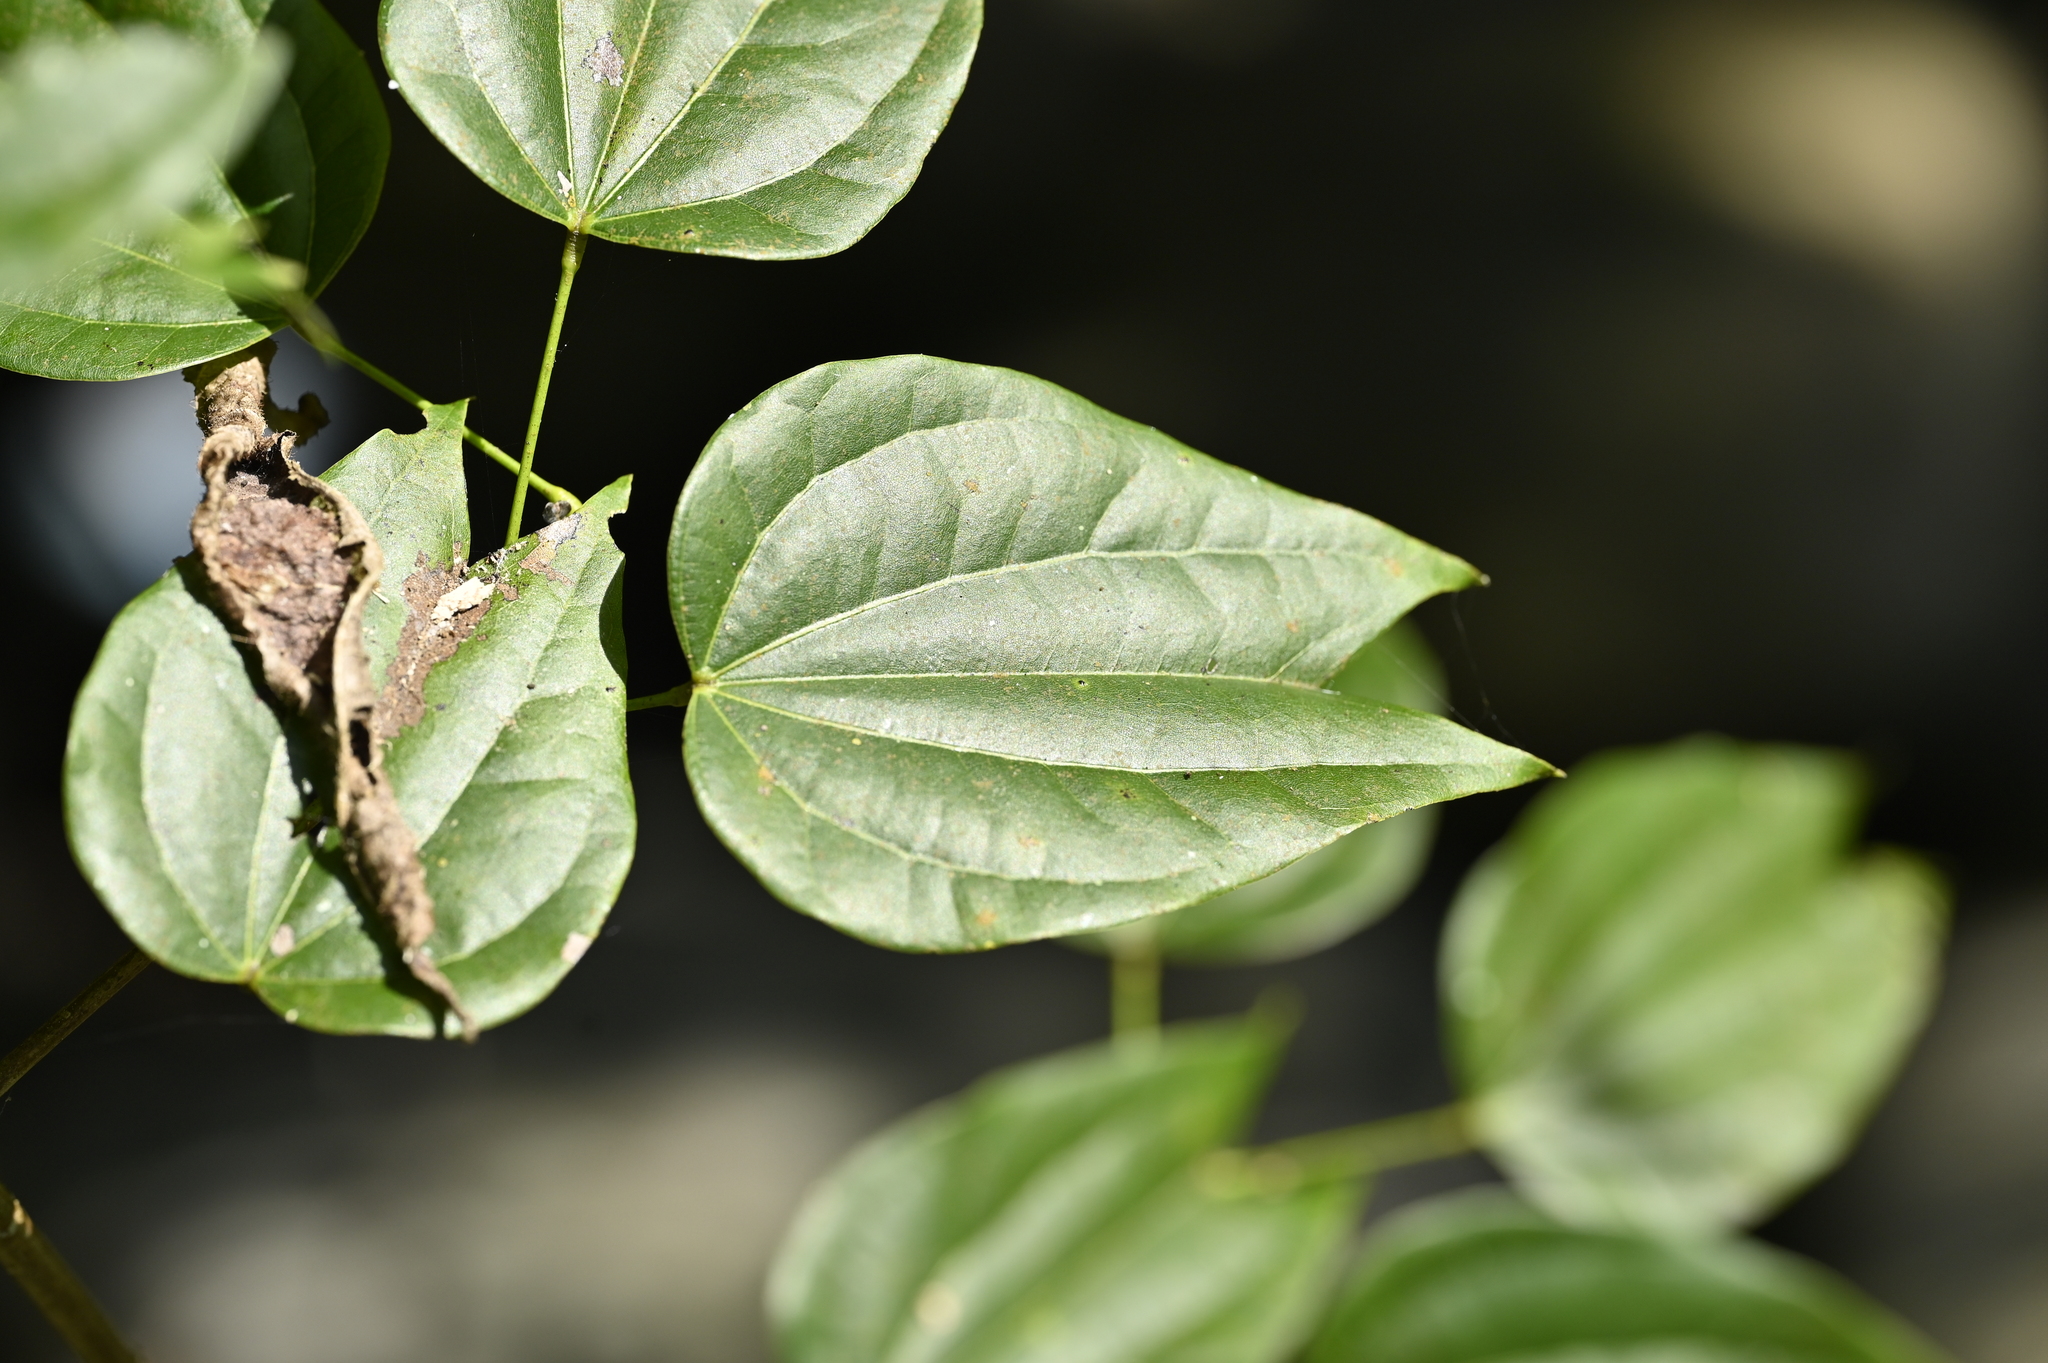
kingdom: Plantae
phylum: Tracheophyta
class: Magnoliopsida
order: Fabales
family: Fabaceae
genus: Phanera
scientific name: Phanera championii
